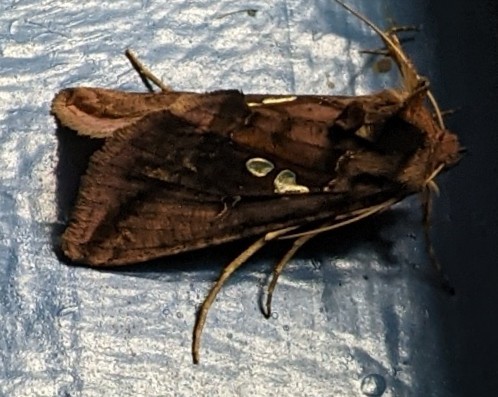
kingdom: Animalia
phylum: Arthropoda
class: Insecta
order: Lepidoptera
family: Noctuidae
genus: Autographa
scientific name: Autographa bimaculata
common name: Double-spotted spangle
